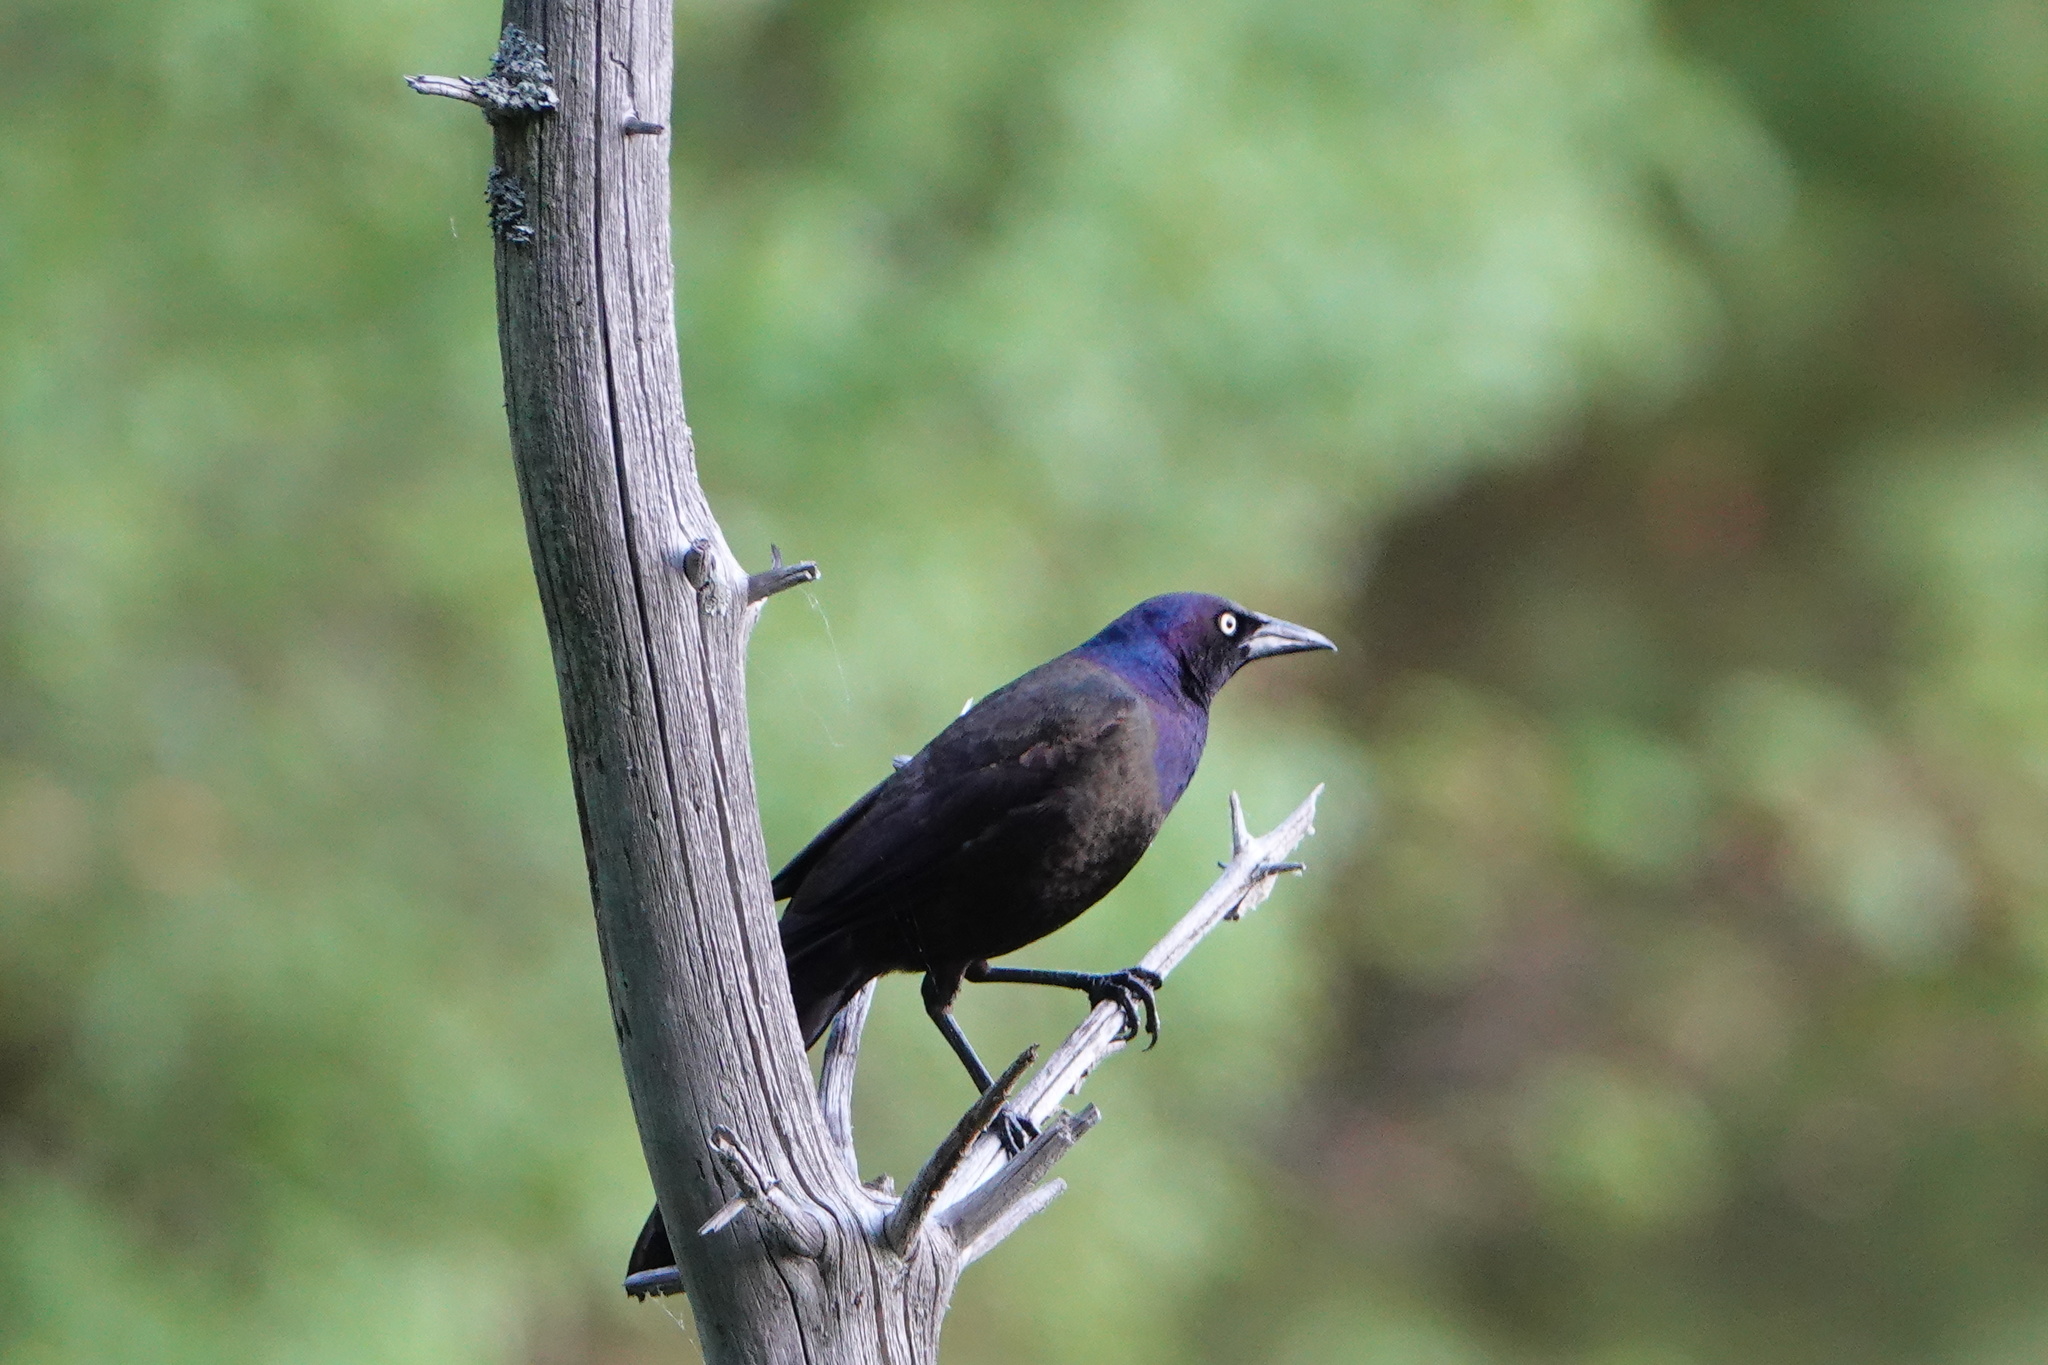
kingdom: Animalia
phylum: Chordata
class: Aves
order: Passeriformes
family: Icteridae
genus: Quiscalus
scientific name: Quiscalus quiscula
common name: Common grackle
